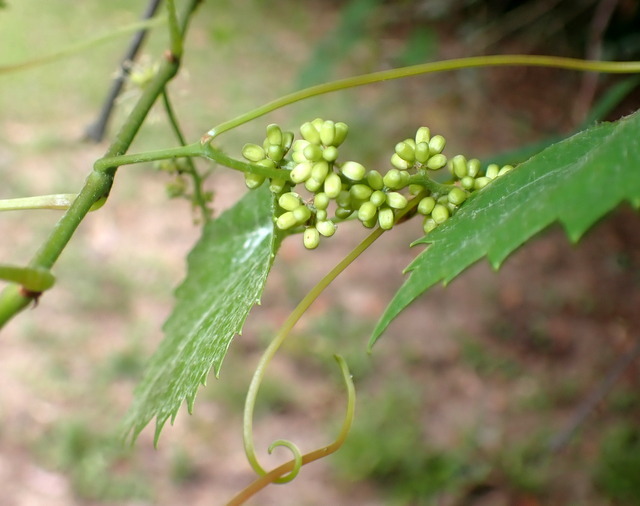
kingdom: Plantae
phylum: Tracheophyta
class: Magnoliopsida
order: Vitales
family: Vitaceae
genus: Vitis
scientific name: Vitis rotundifolia
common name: Muscadine grape
